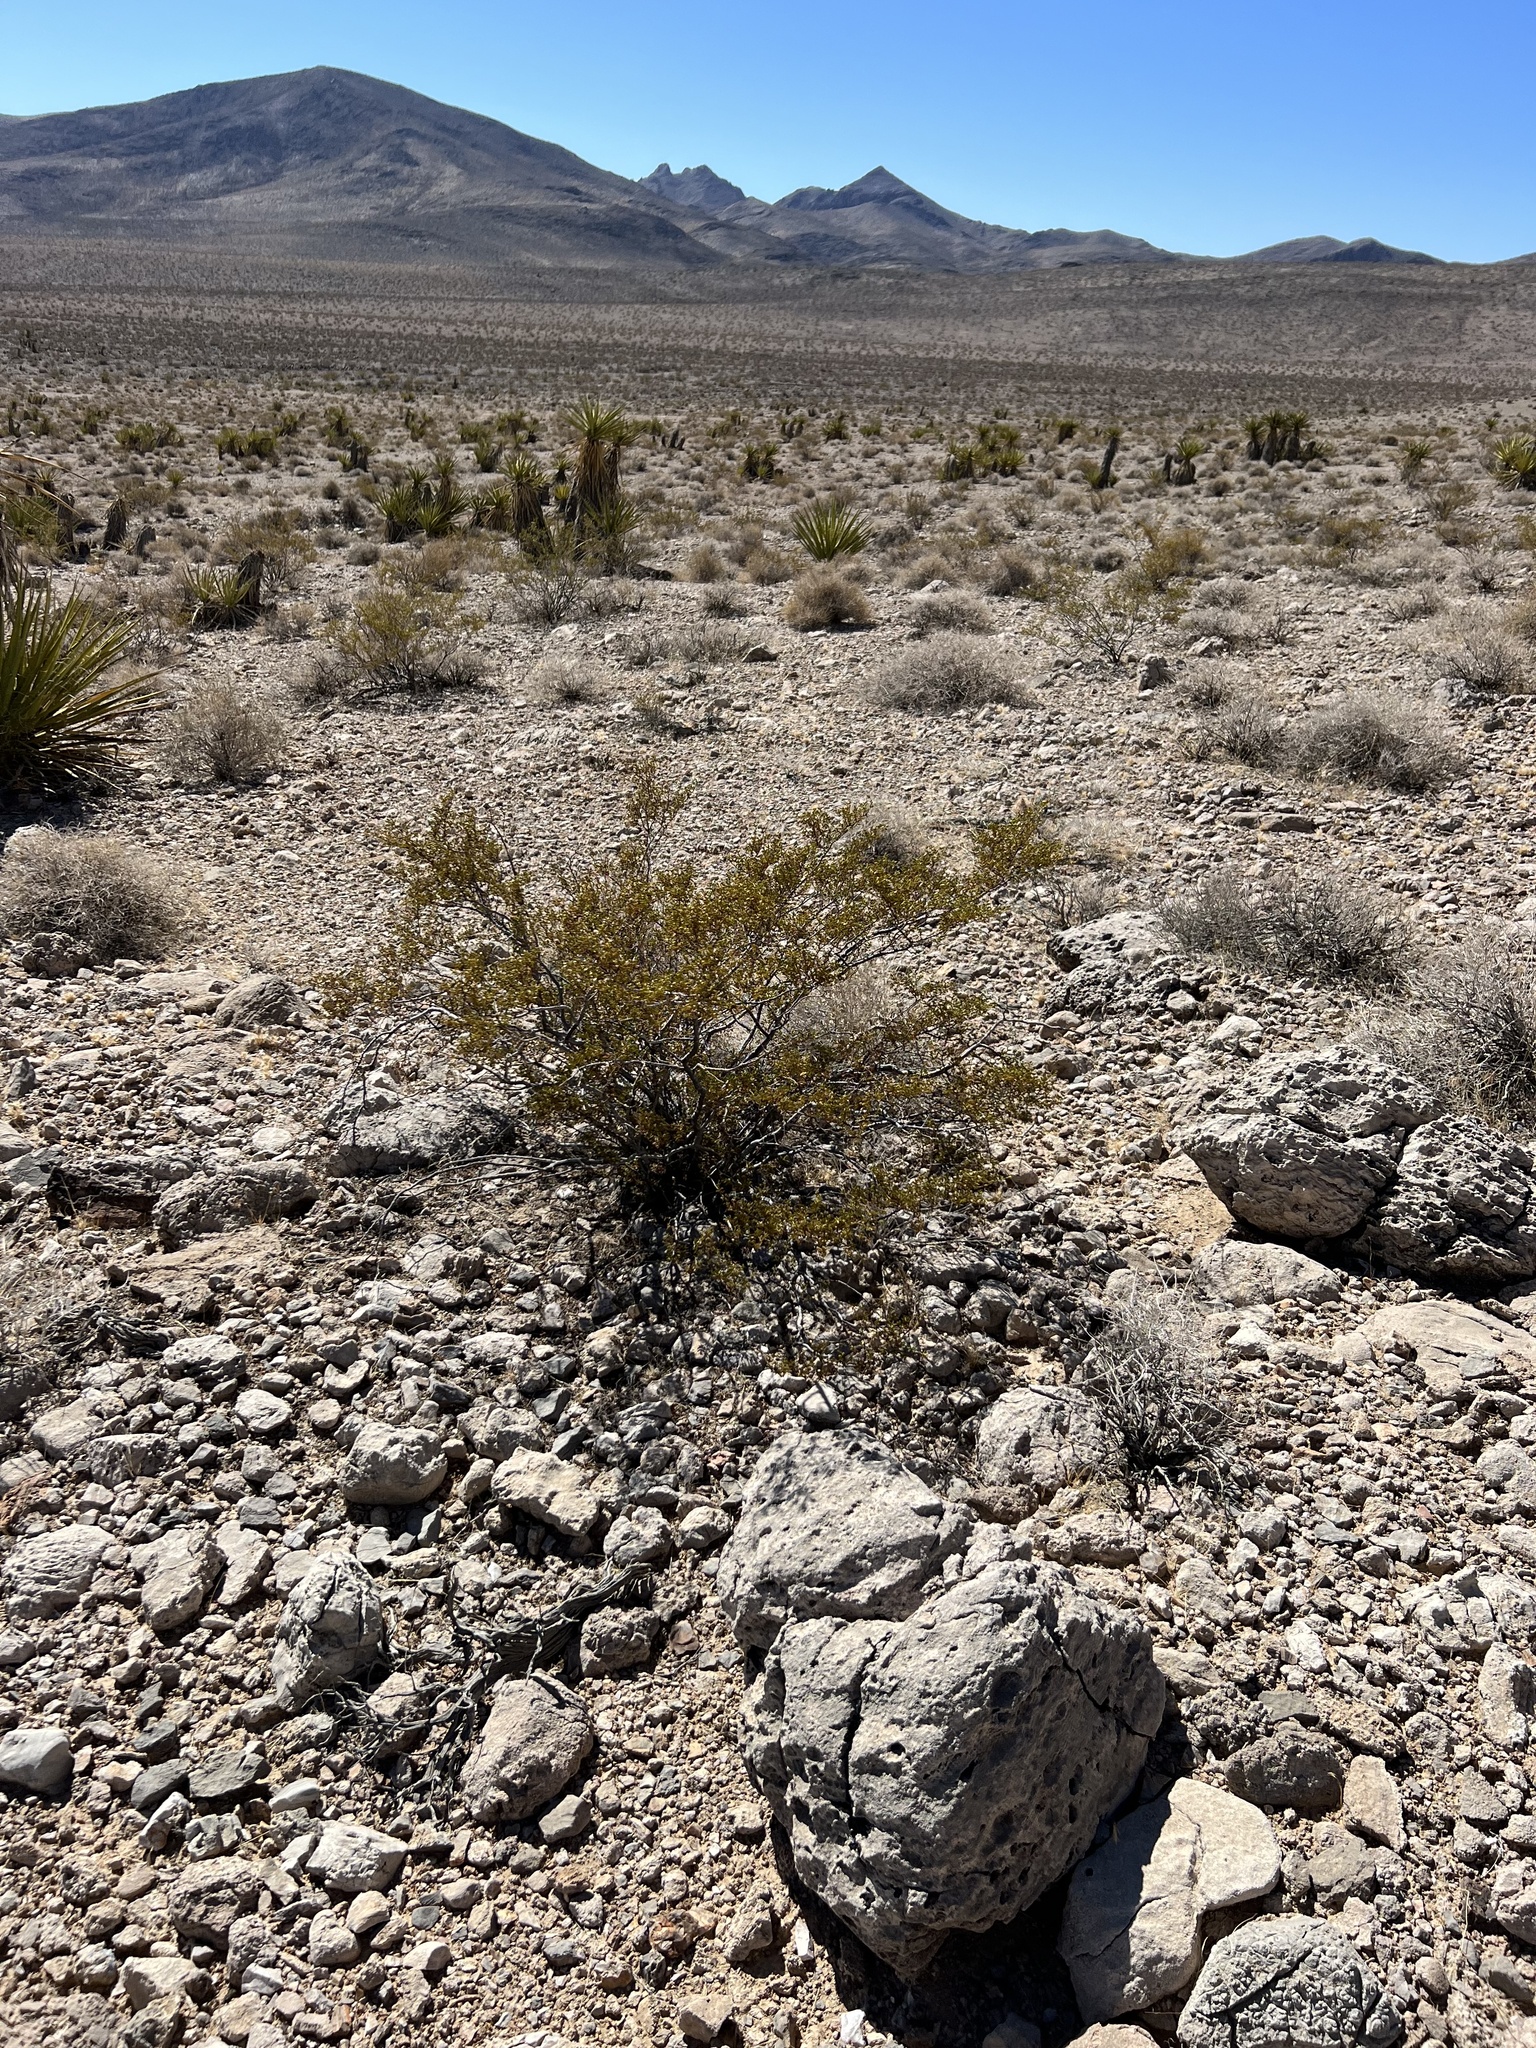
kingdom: Plantae
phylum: Tracheophyta
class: Magnoliopsida
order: Zygophyllales
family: Zygophyllaceae
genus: Larrea
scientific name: Larrea tridentata
